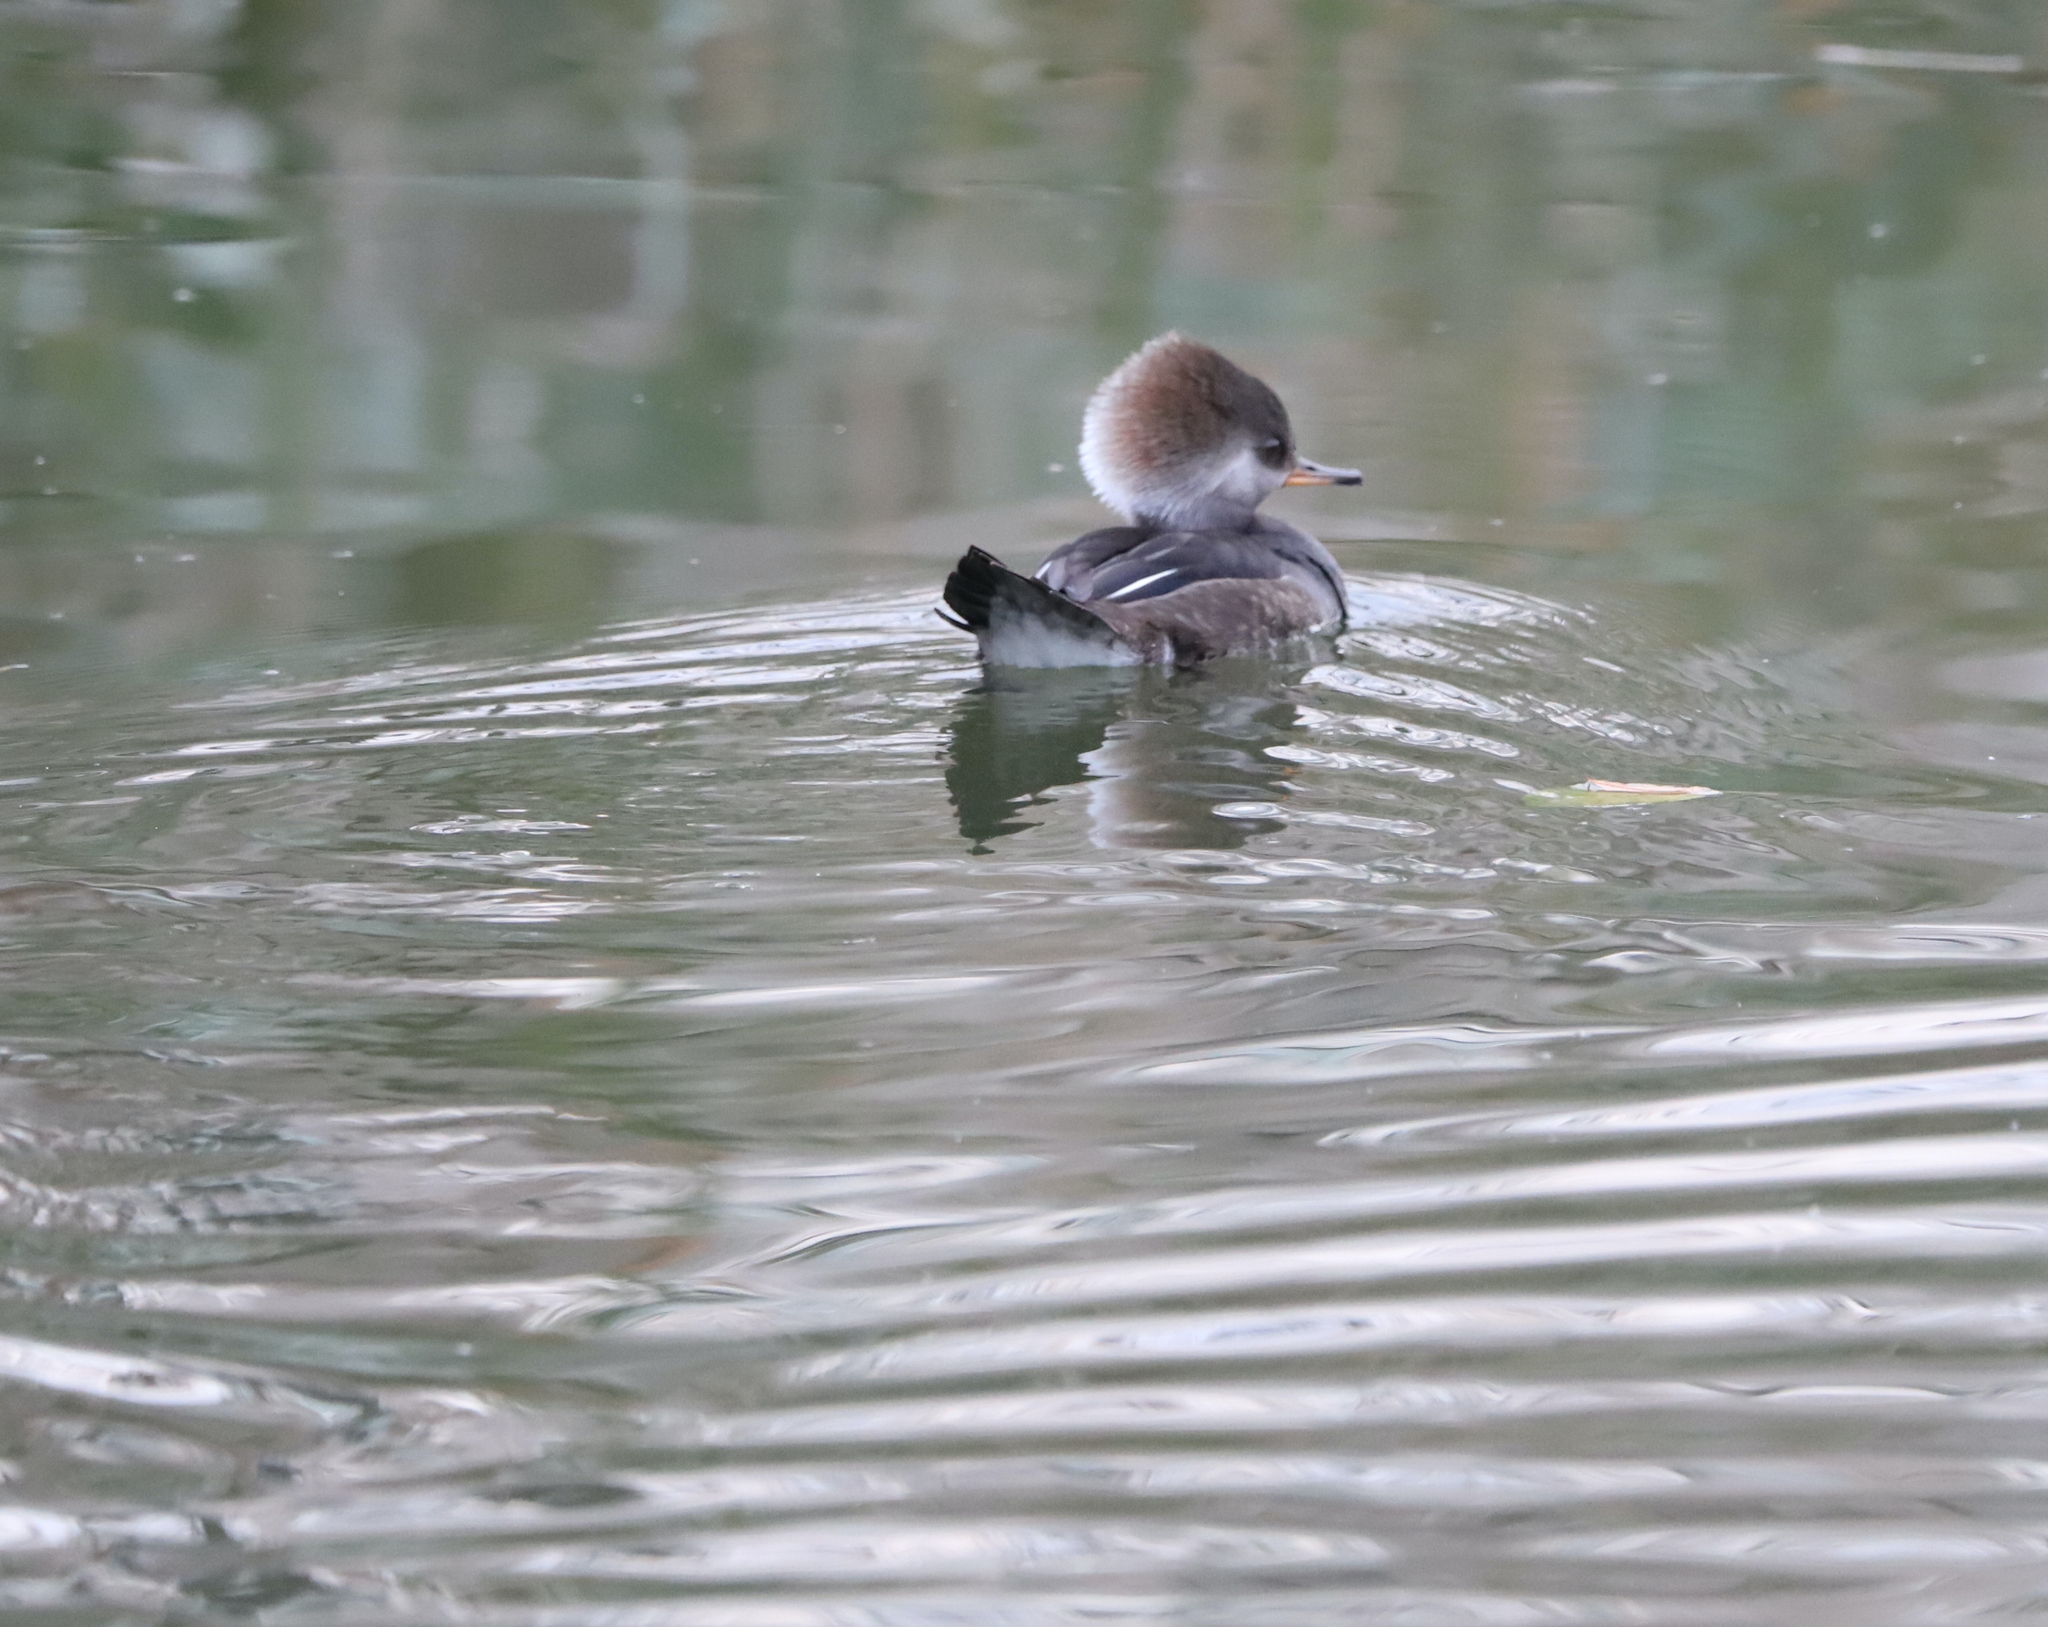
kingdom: Animalia
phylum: Chordata
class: Aves
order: Anseriformes
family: Anatidae
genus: Lophodytes
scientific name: Lophodytes cucullatus
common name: Hooded merganser
